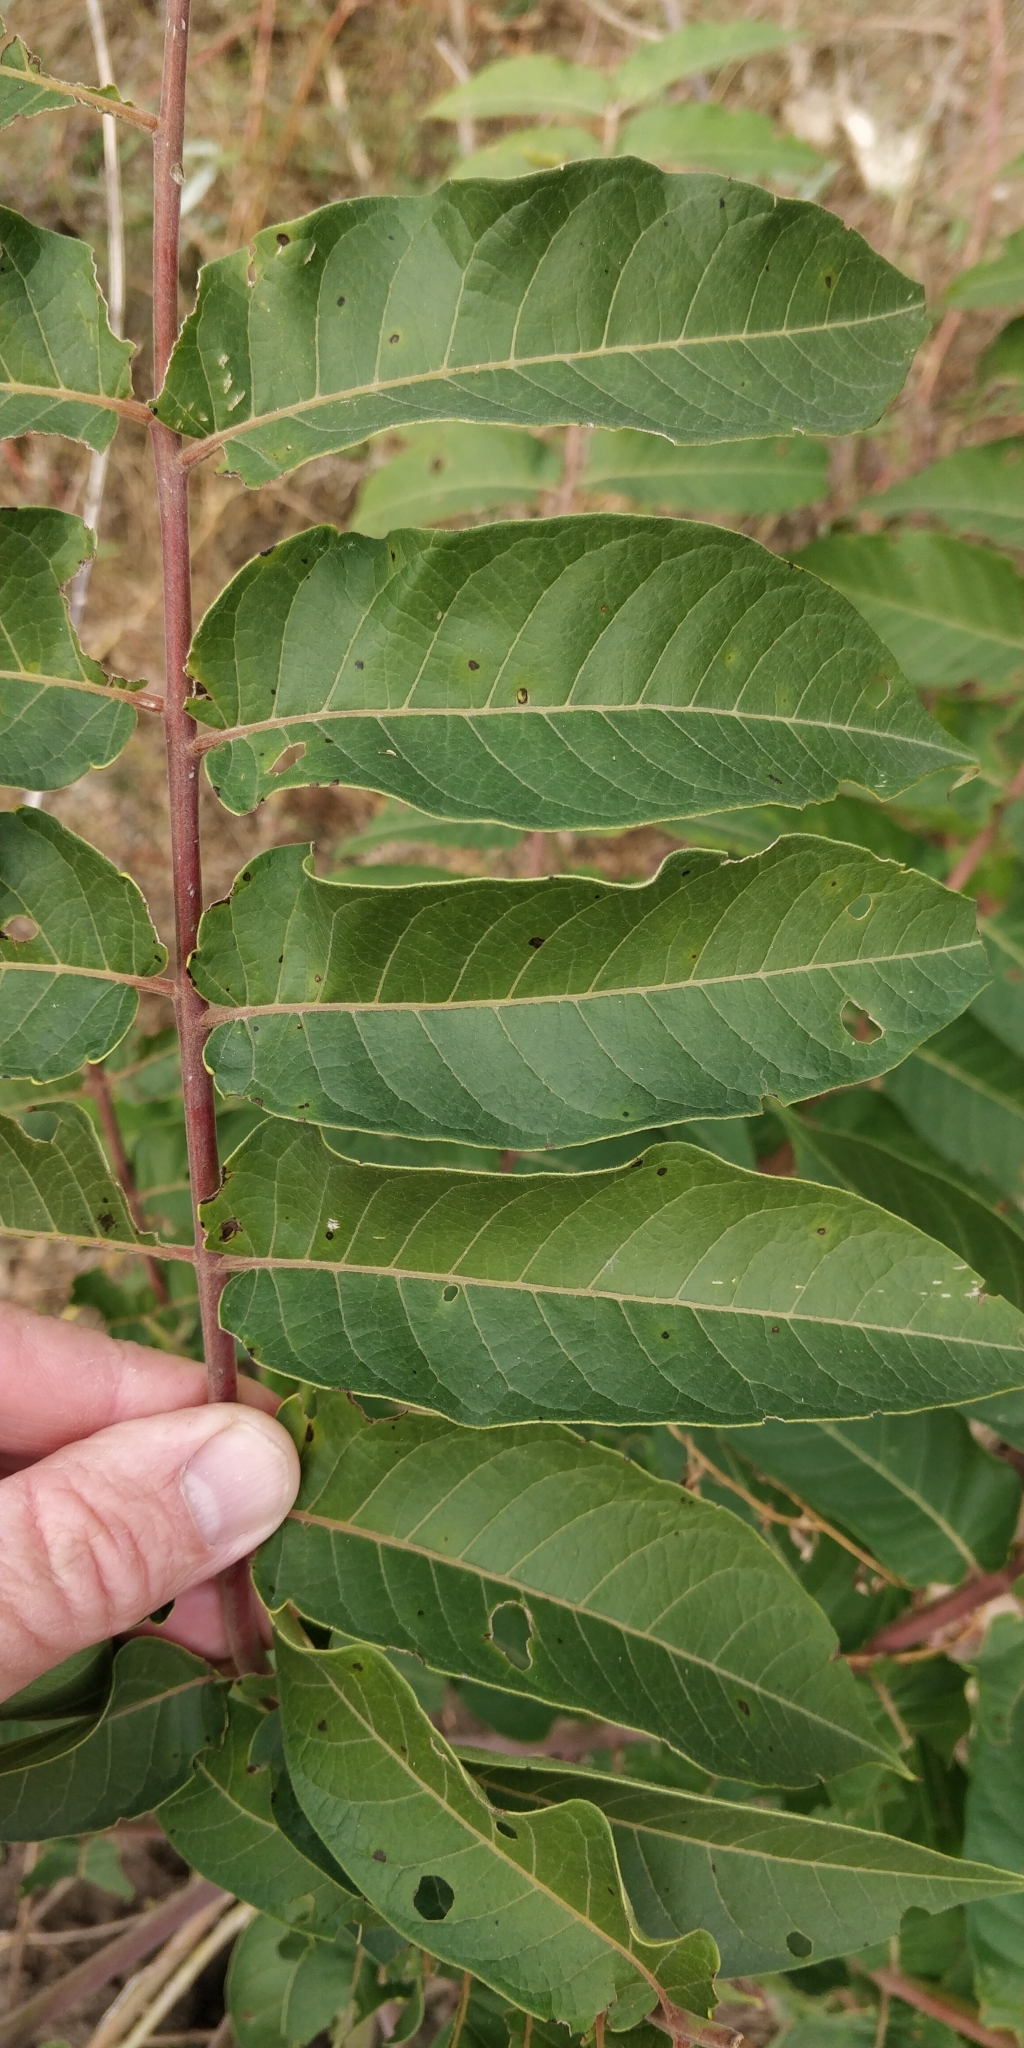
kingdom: Plantae
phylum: Tracheophyta
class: Magnoliopsida
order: Sapindales
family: Simaroubaceae
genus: Ailanthus
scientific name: Ailanthus altissima
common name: Tree-of-heaven
